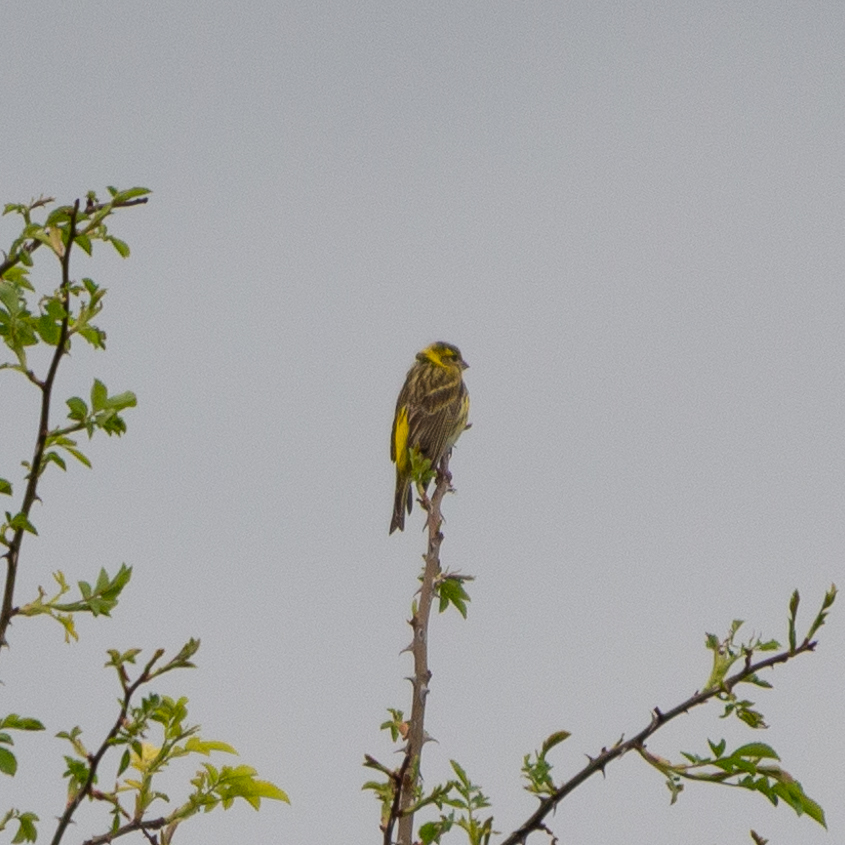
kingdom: Animalia
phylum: Chordata
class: Aves
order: Passeriformes
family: Fringillidae
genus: Serinus
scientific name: Serinus serinus
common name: European serin
